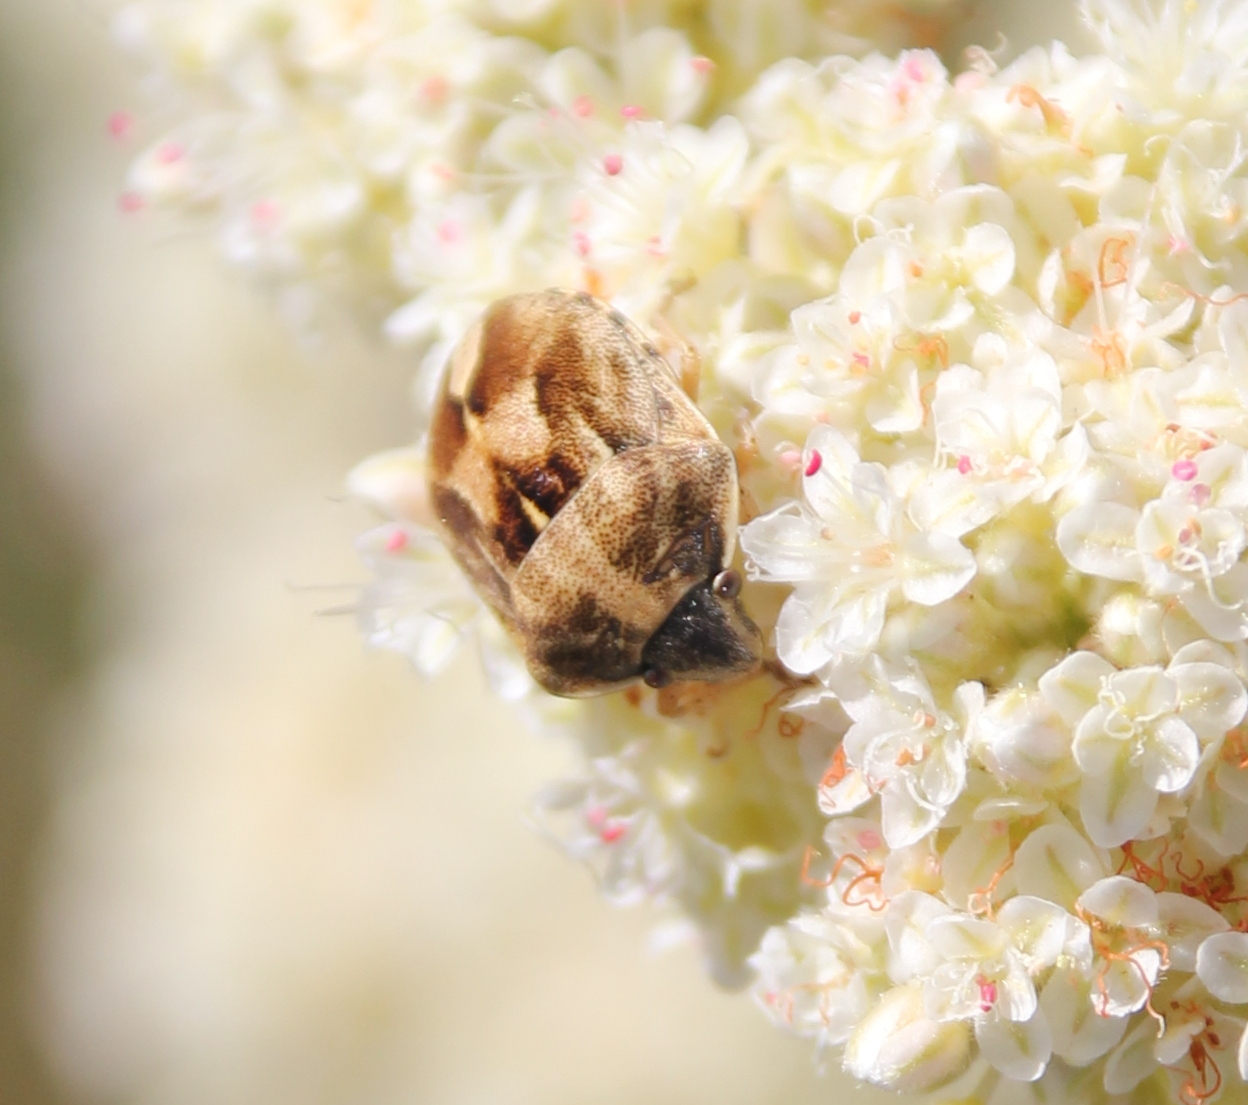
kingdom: Animalia
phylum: Arthropoda
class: Insecta
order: Hemiptera
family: Scutelleridae
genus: Homaemus
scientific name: Homaemus parvulus
